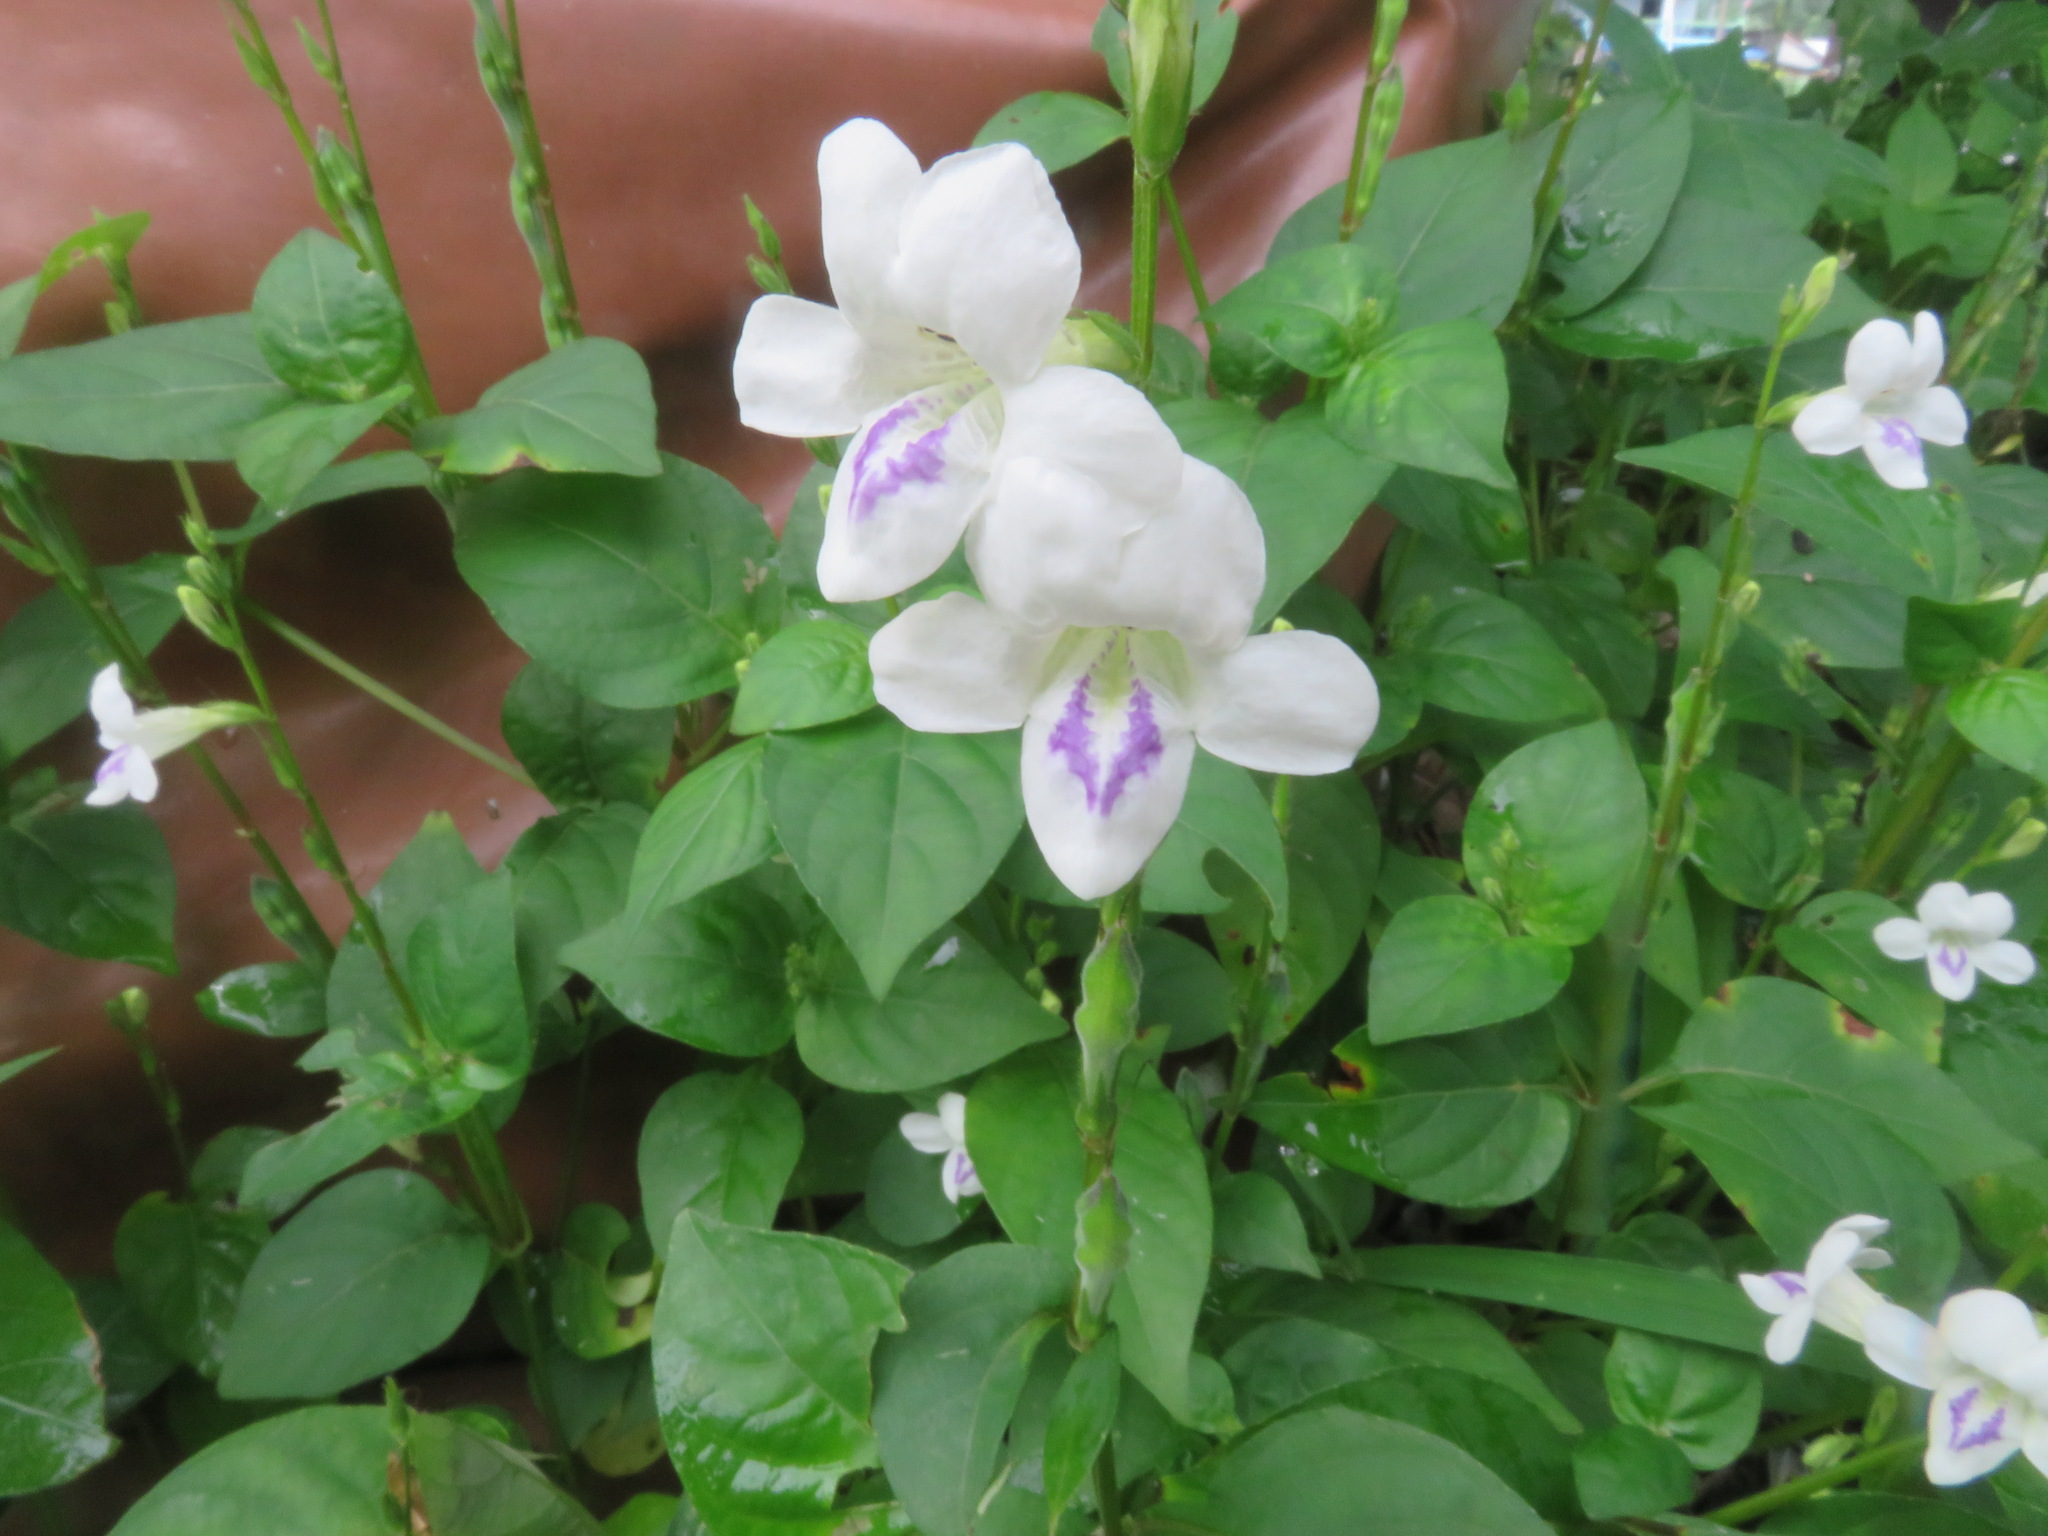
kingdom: Plantae
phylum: Tracheophyta
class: Magnoliopsida
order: Lamiales
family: Acanthaceae
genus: Asystasia
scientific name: Asystasia intrusa
